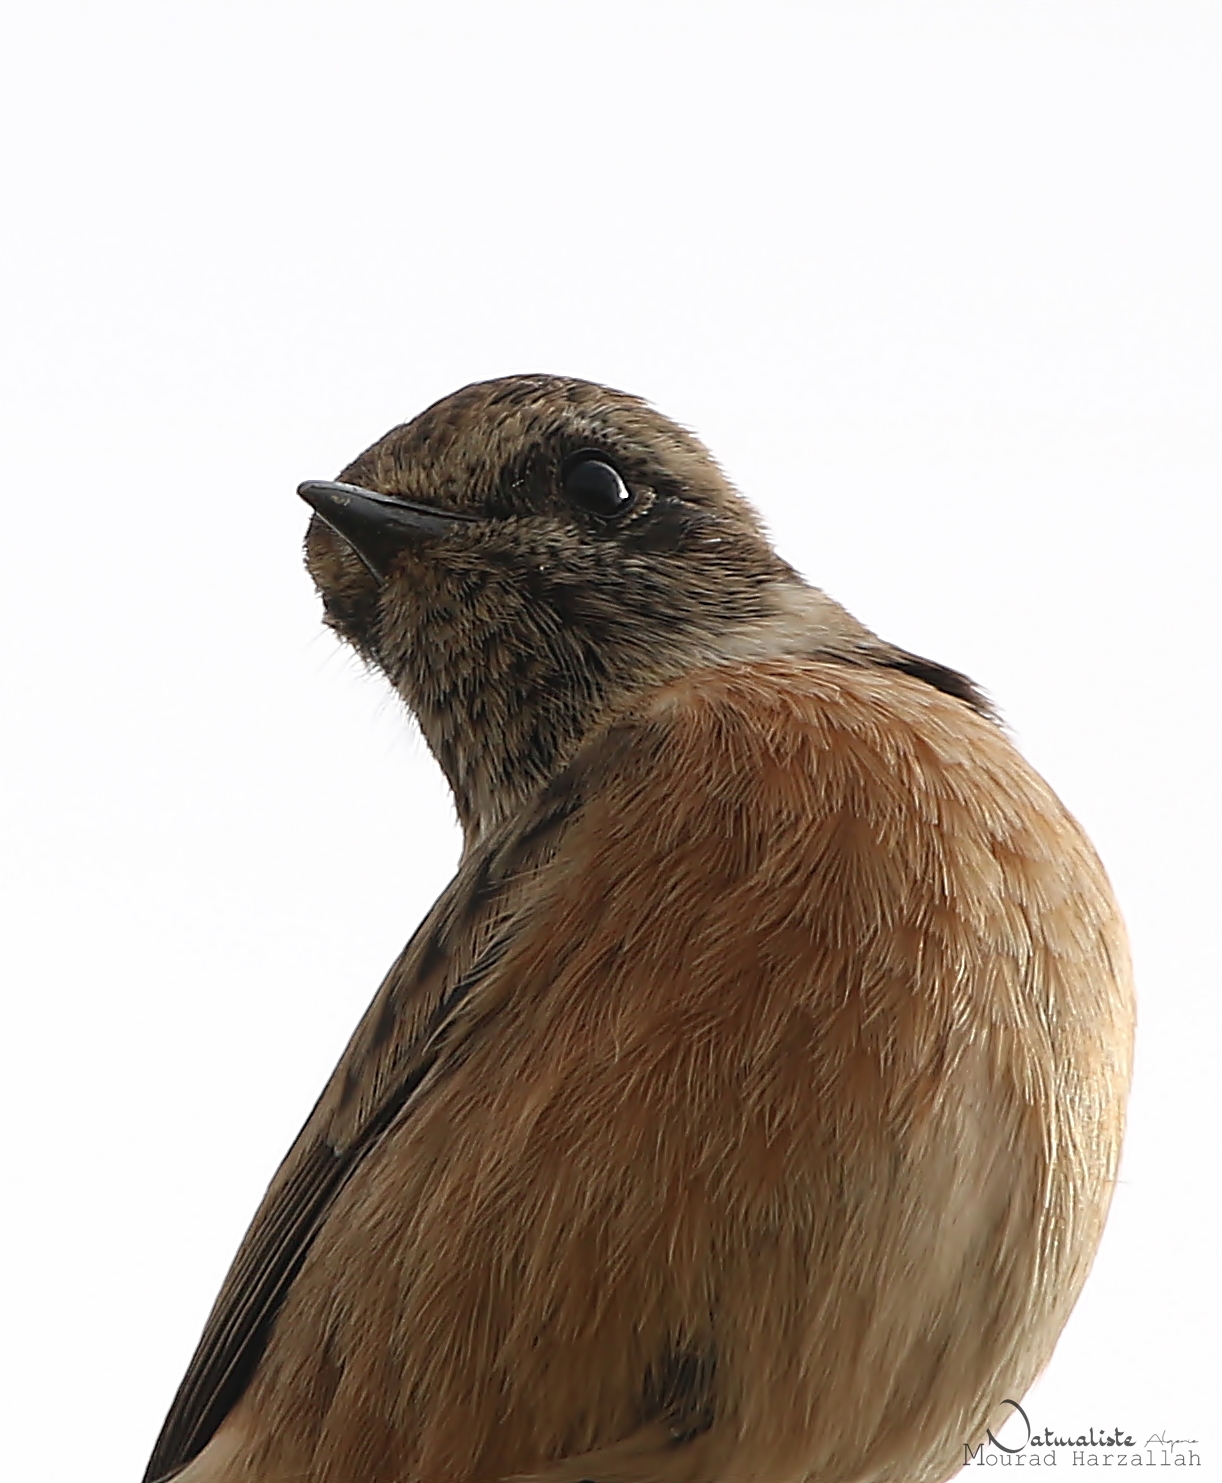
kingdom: Animalia
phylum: Chordata
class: Aves
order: Passeriformes
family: Muscicapidae
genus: Saxicola
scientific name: Saxicola rubicola
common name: European stonechat
